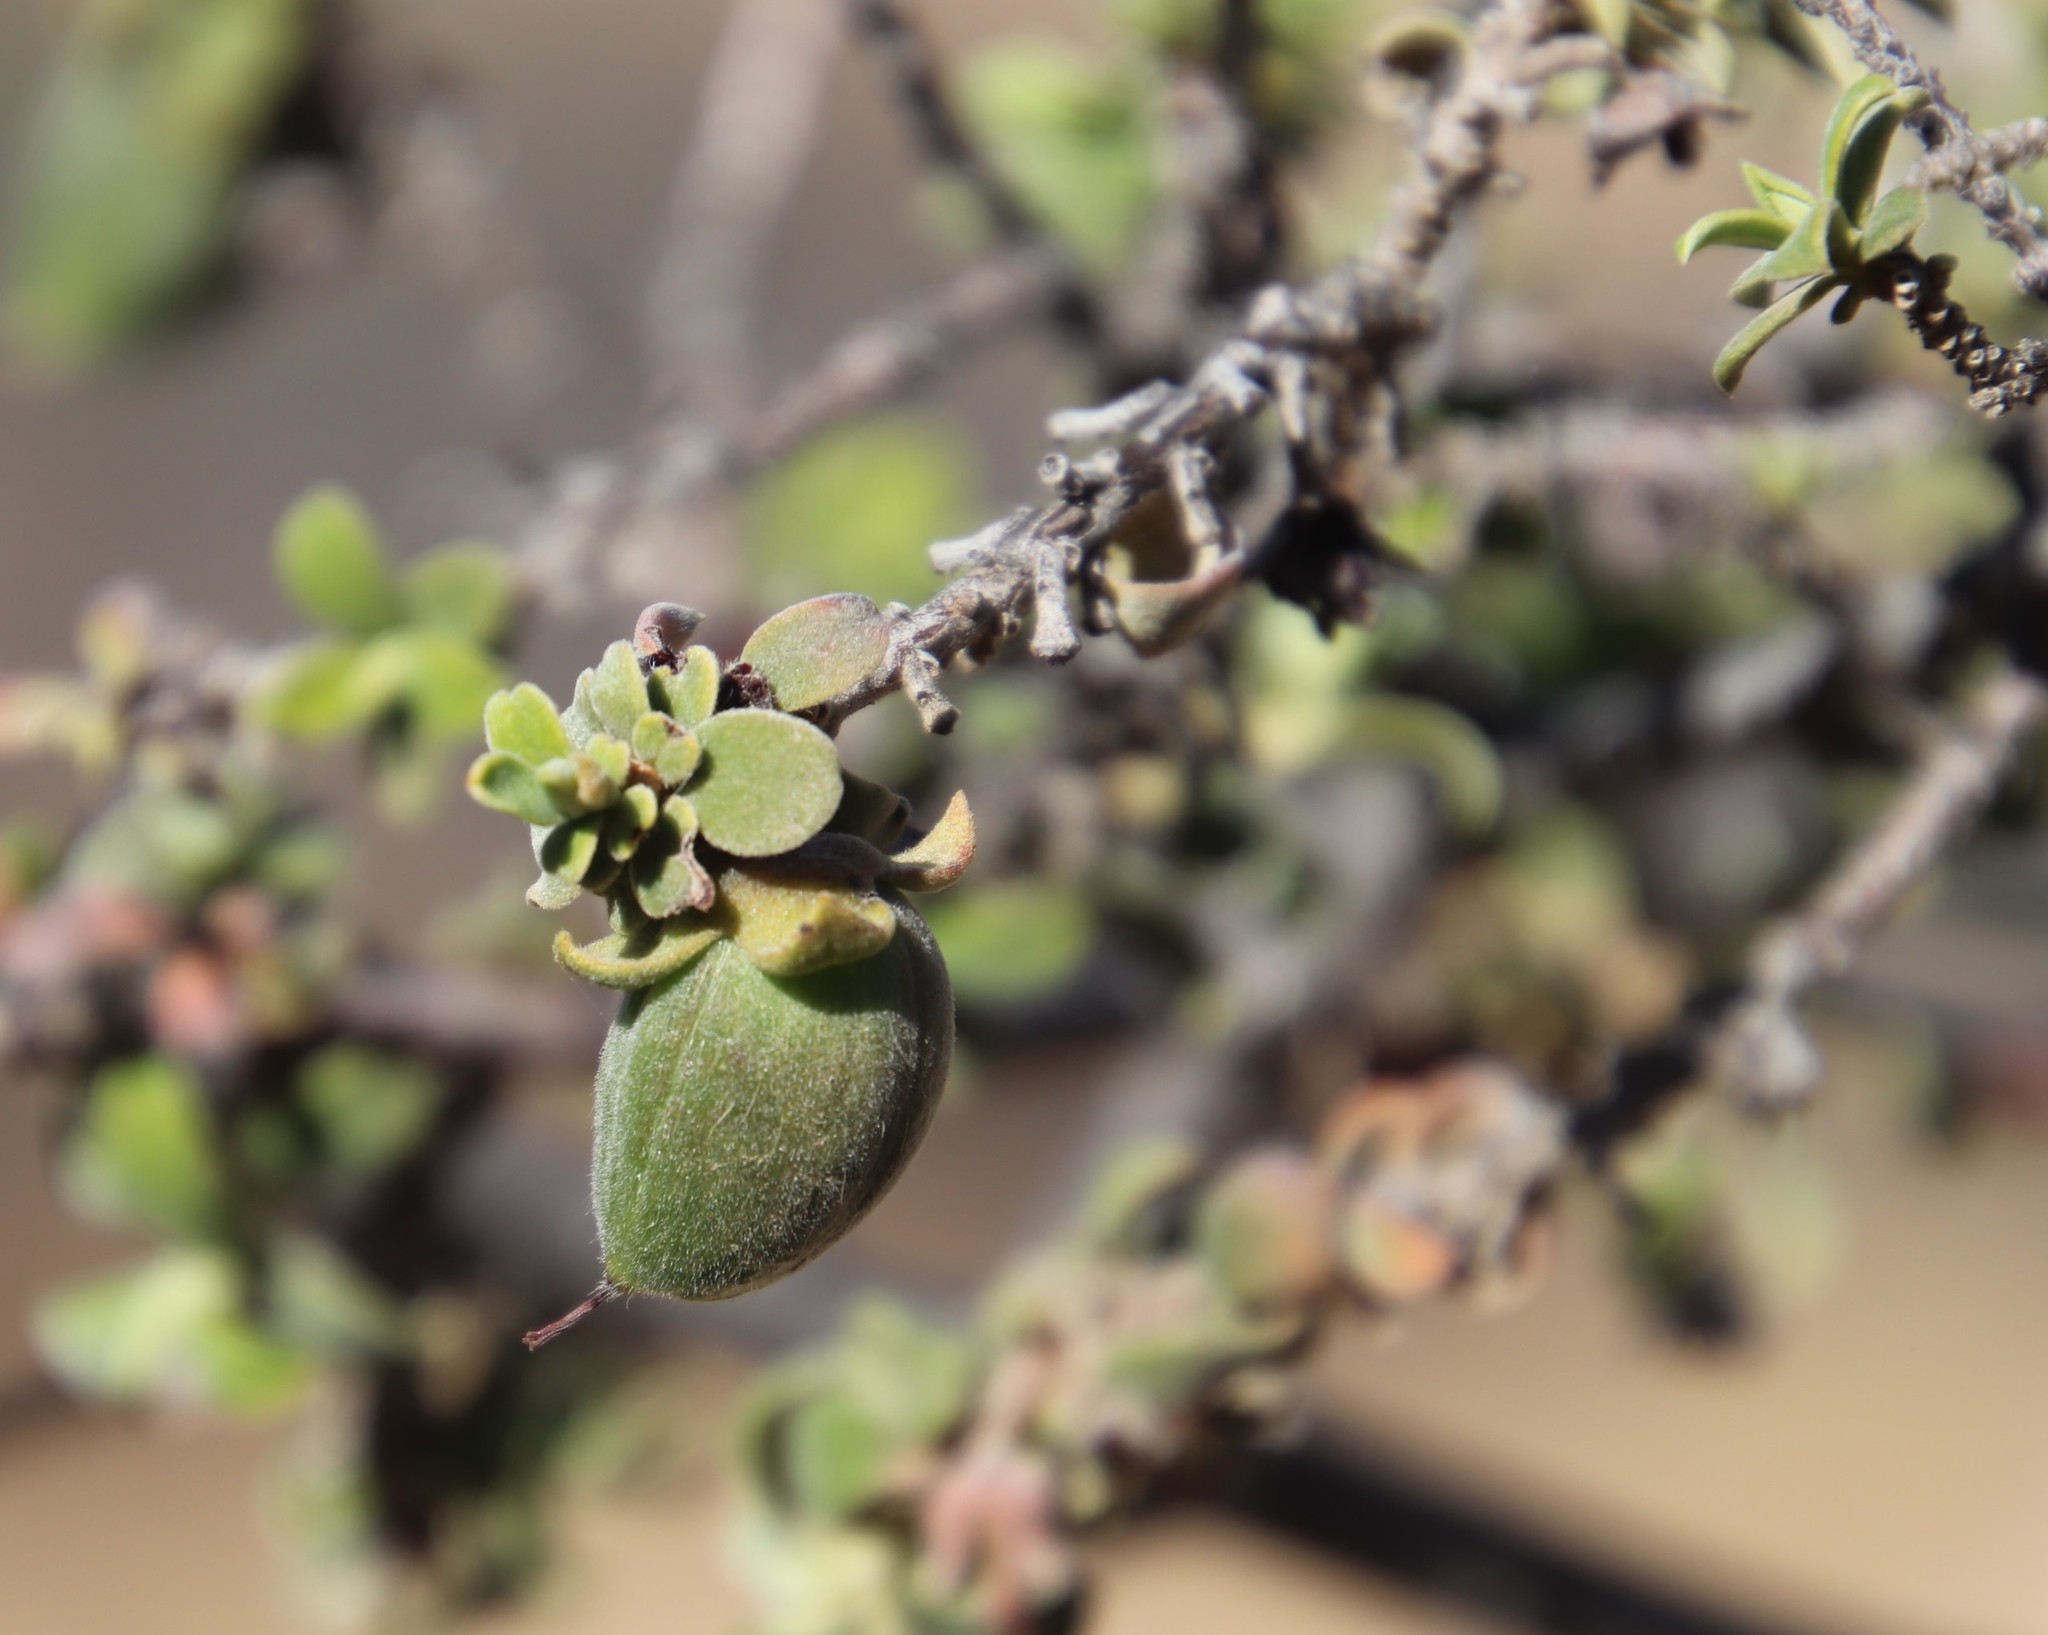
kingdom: Plantae
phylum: Tracheophyta
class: Magnoliopsida
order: Ericales
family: Ebenaceae
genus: Diospyros
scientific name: Diospyros ramulosa
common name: Namaqua fire-sticks
